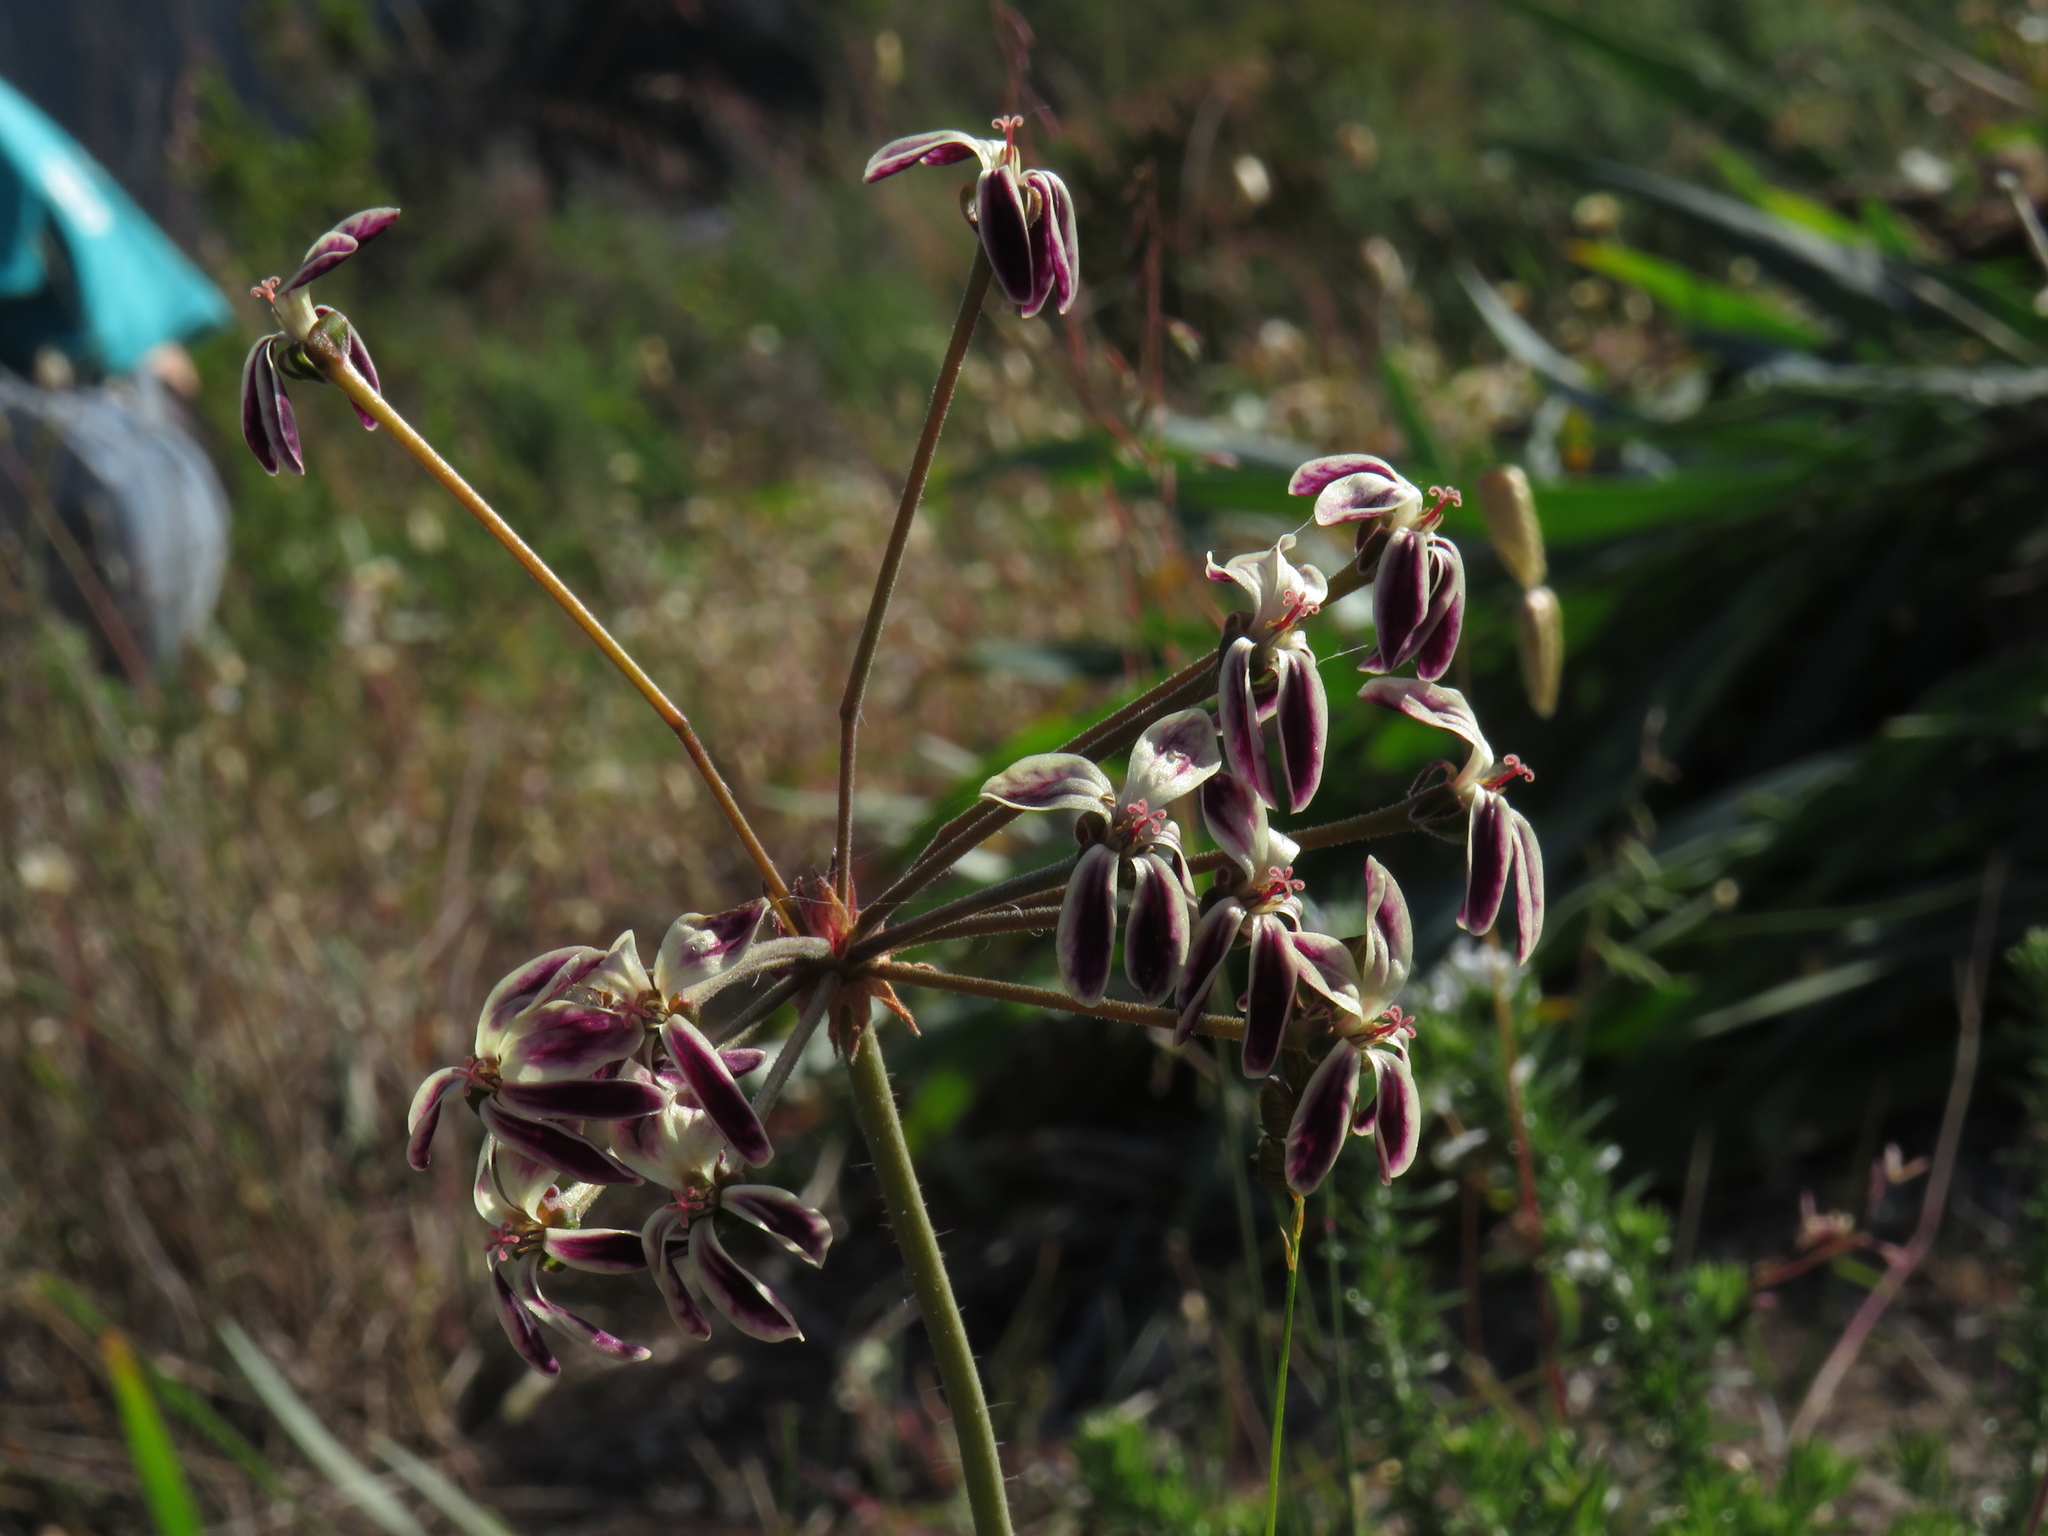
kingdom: Plantae
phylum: Tracheophyta
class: Magnoliopsida
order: Geraniales
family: Geraniaceae
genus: Pelargonium
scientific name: Pelargonium triste
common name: Night-scent pelargonium
